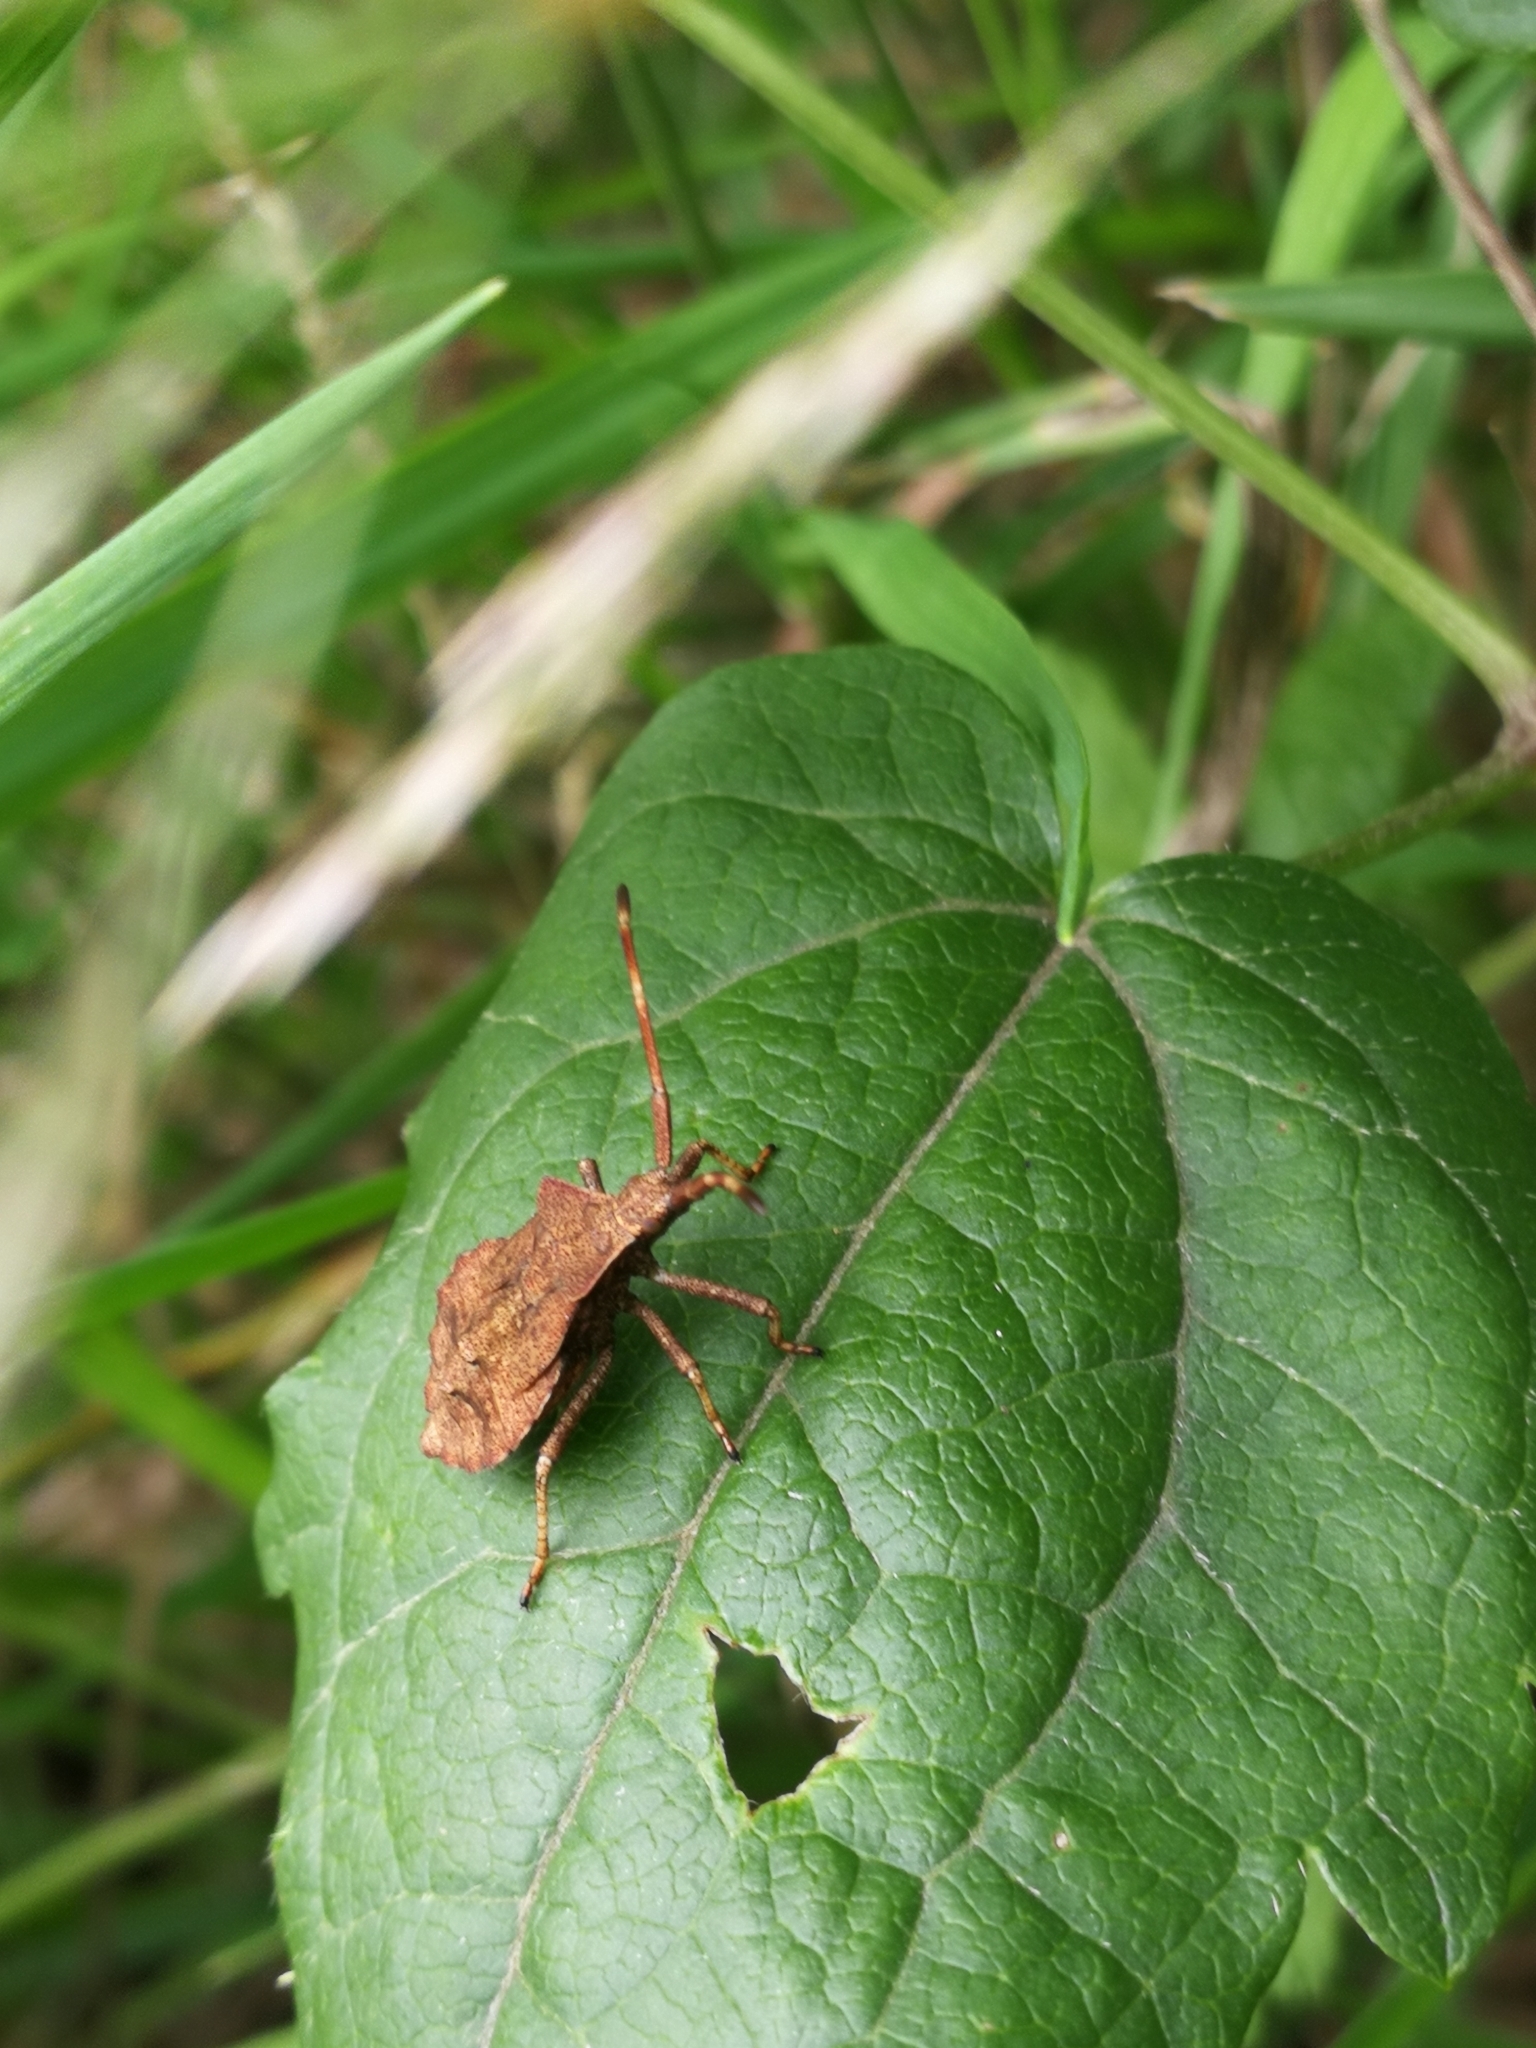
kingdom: Animalia
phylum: Arthropoda
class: Insecta
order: Hemiptera
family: Coreidae
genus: Coreus
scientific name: Coreus marginatus
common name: Dock bug
